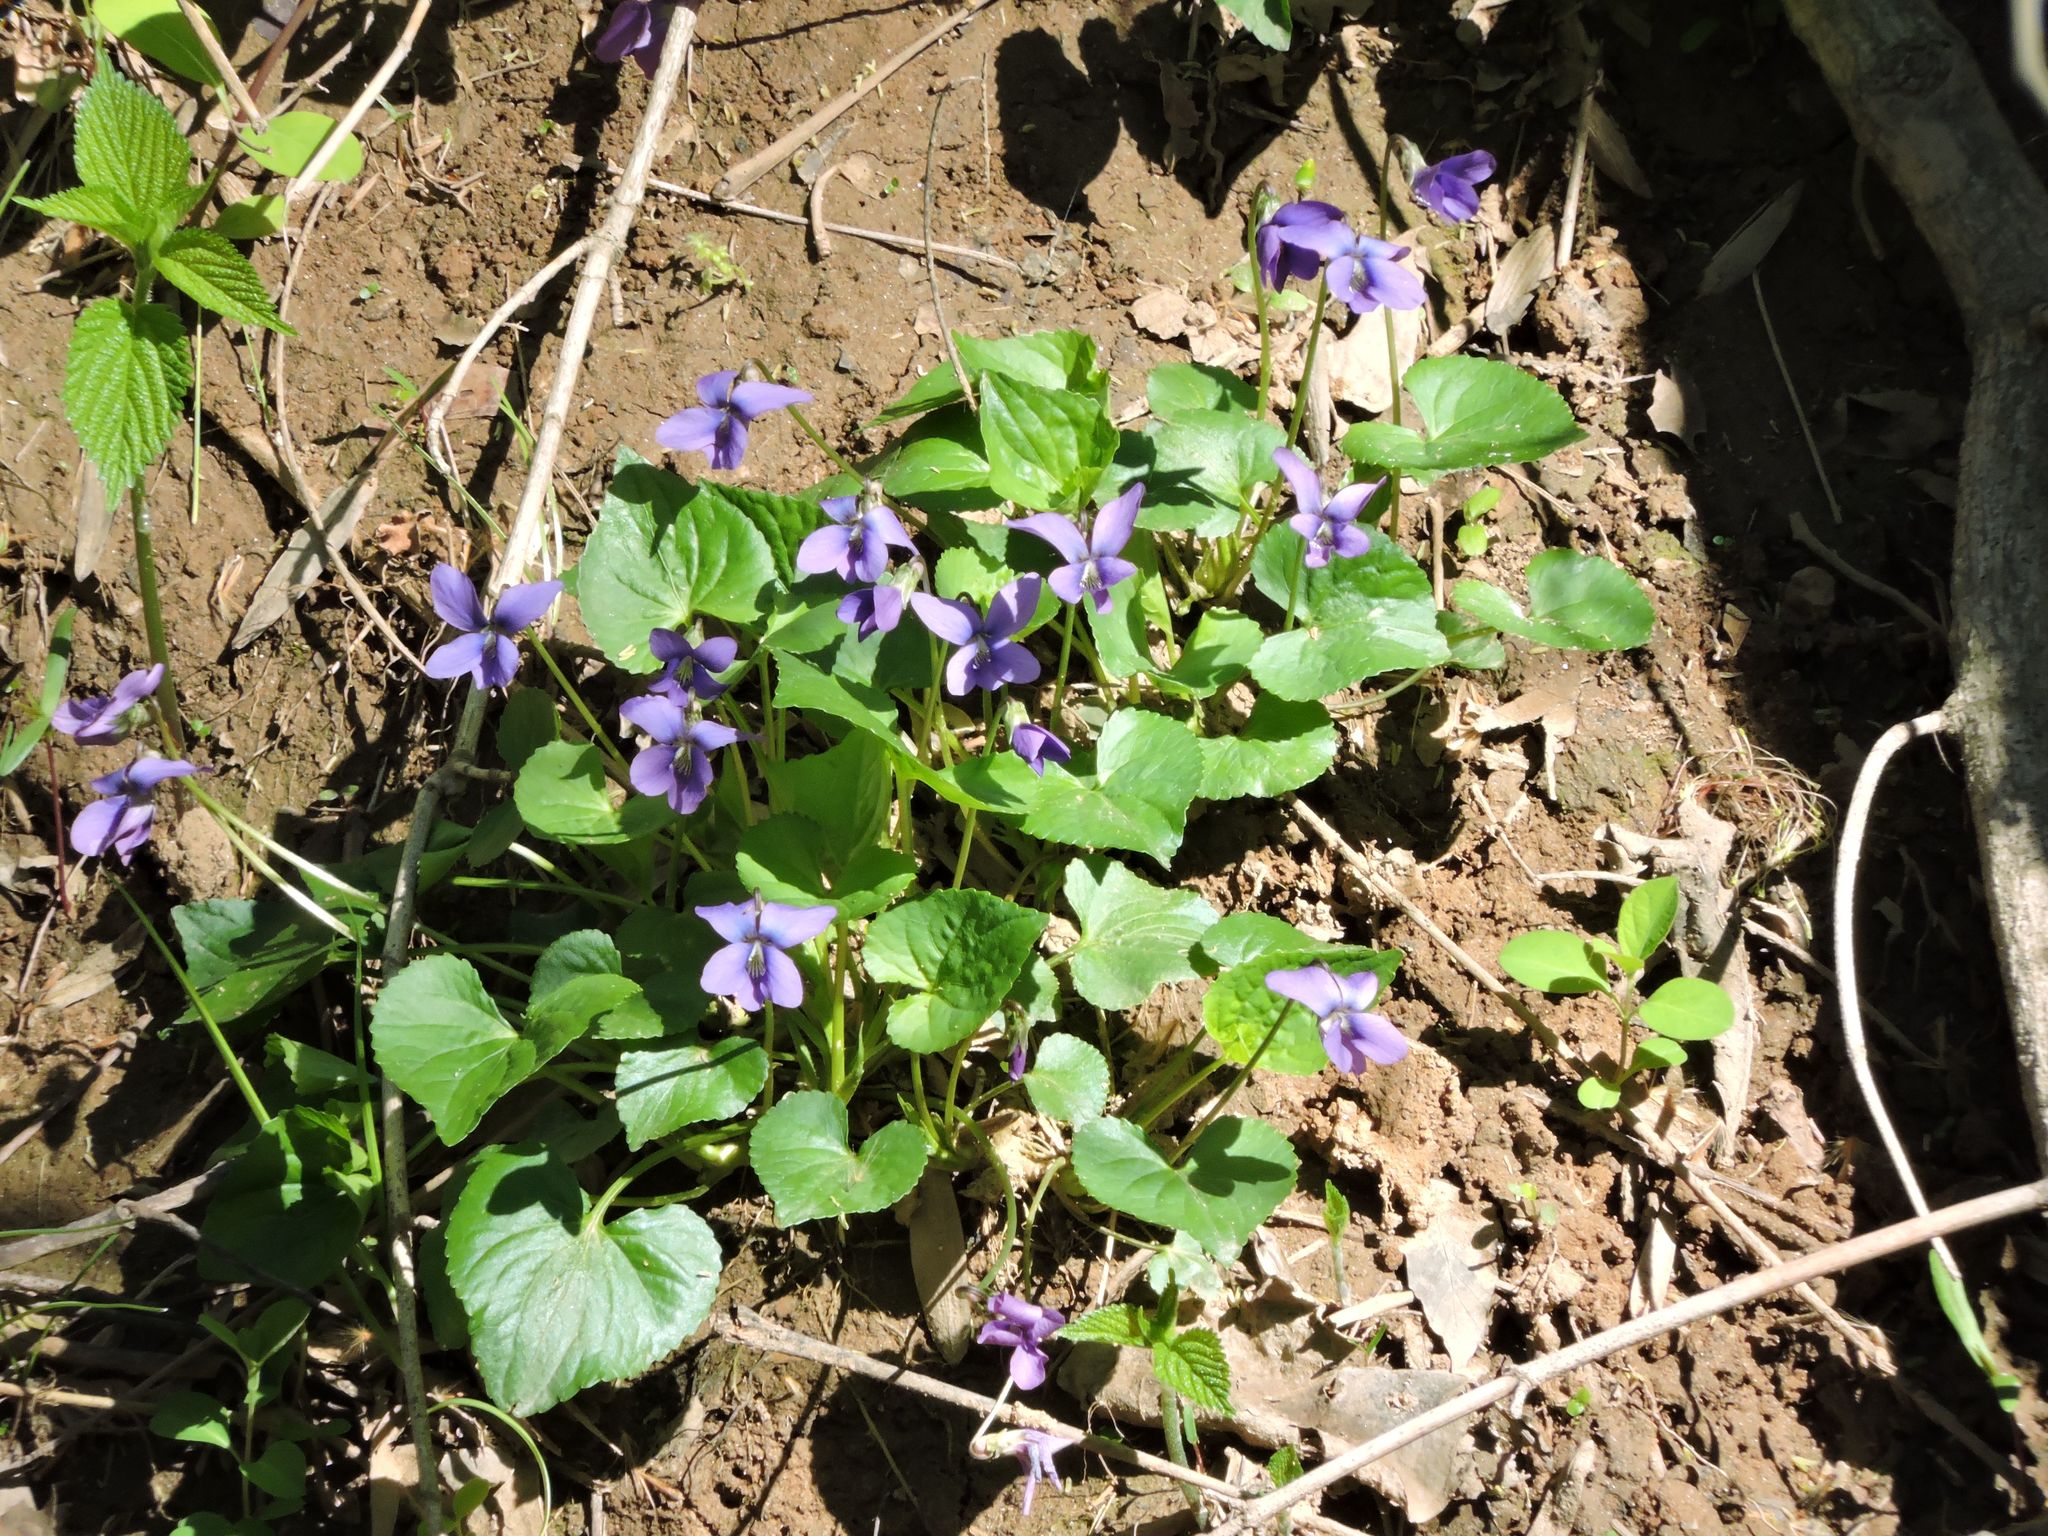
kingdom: Plantae
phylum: Tracheophyta
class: Magnoliopsida
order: Malpighiales
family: Violaceae
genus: Viola
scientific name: Viola sororia
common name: Dooryard violet
